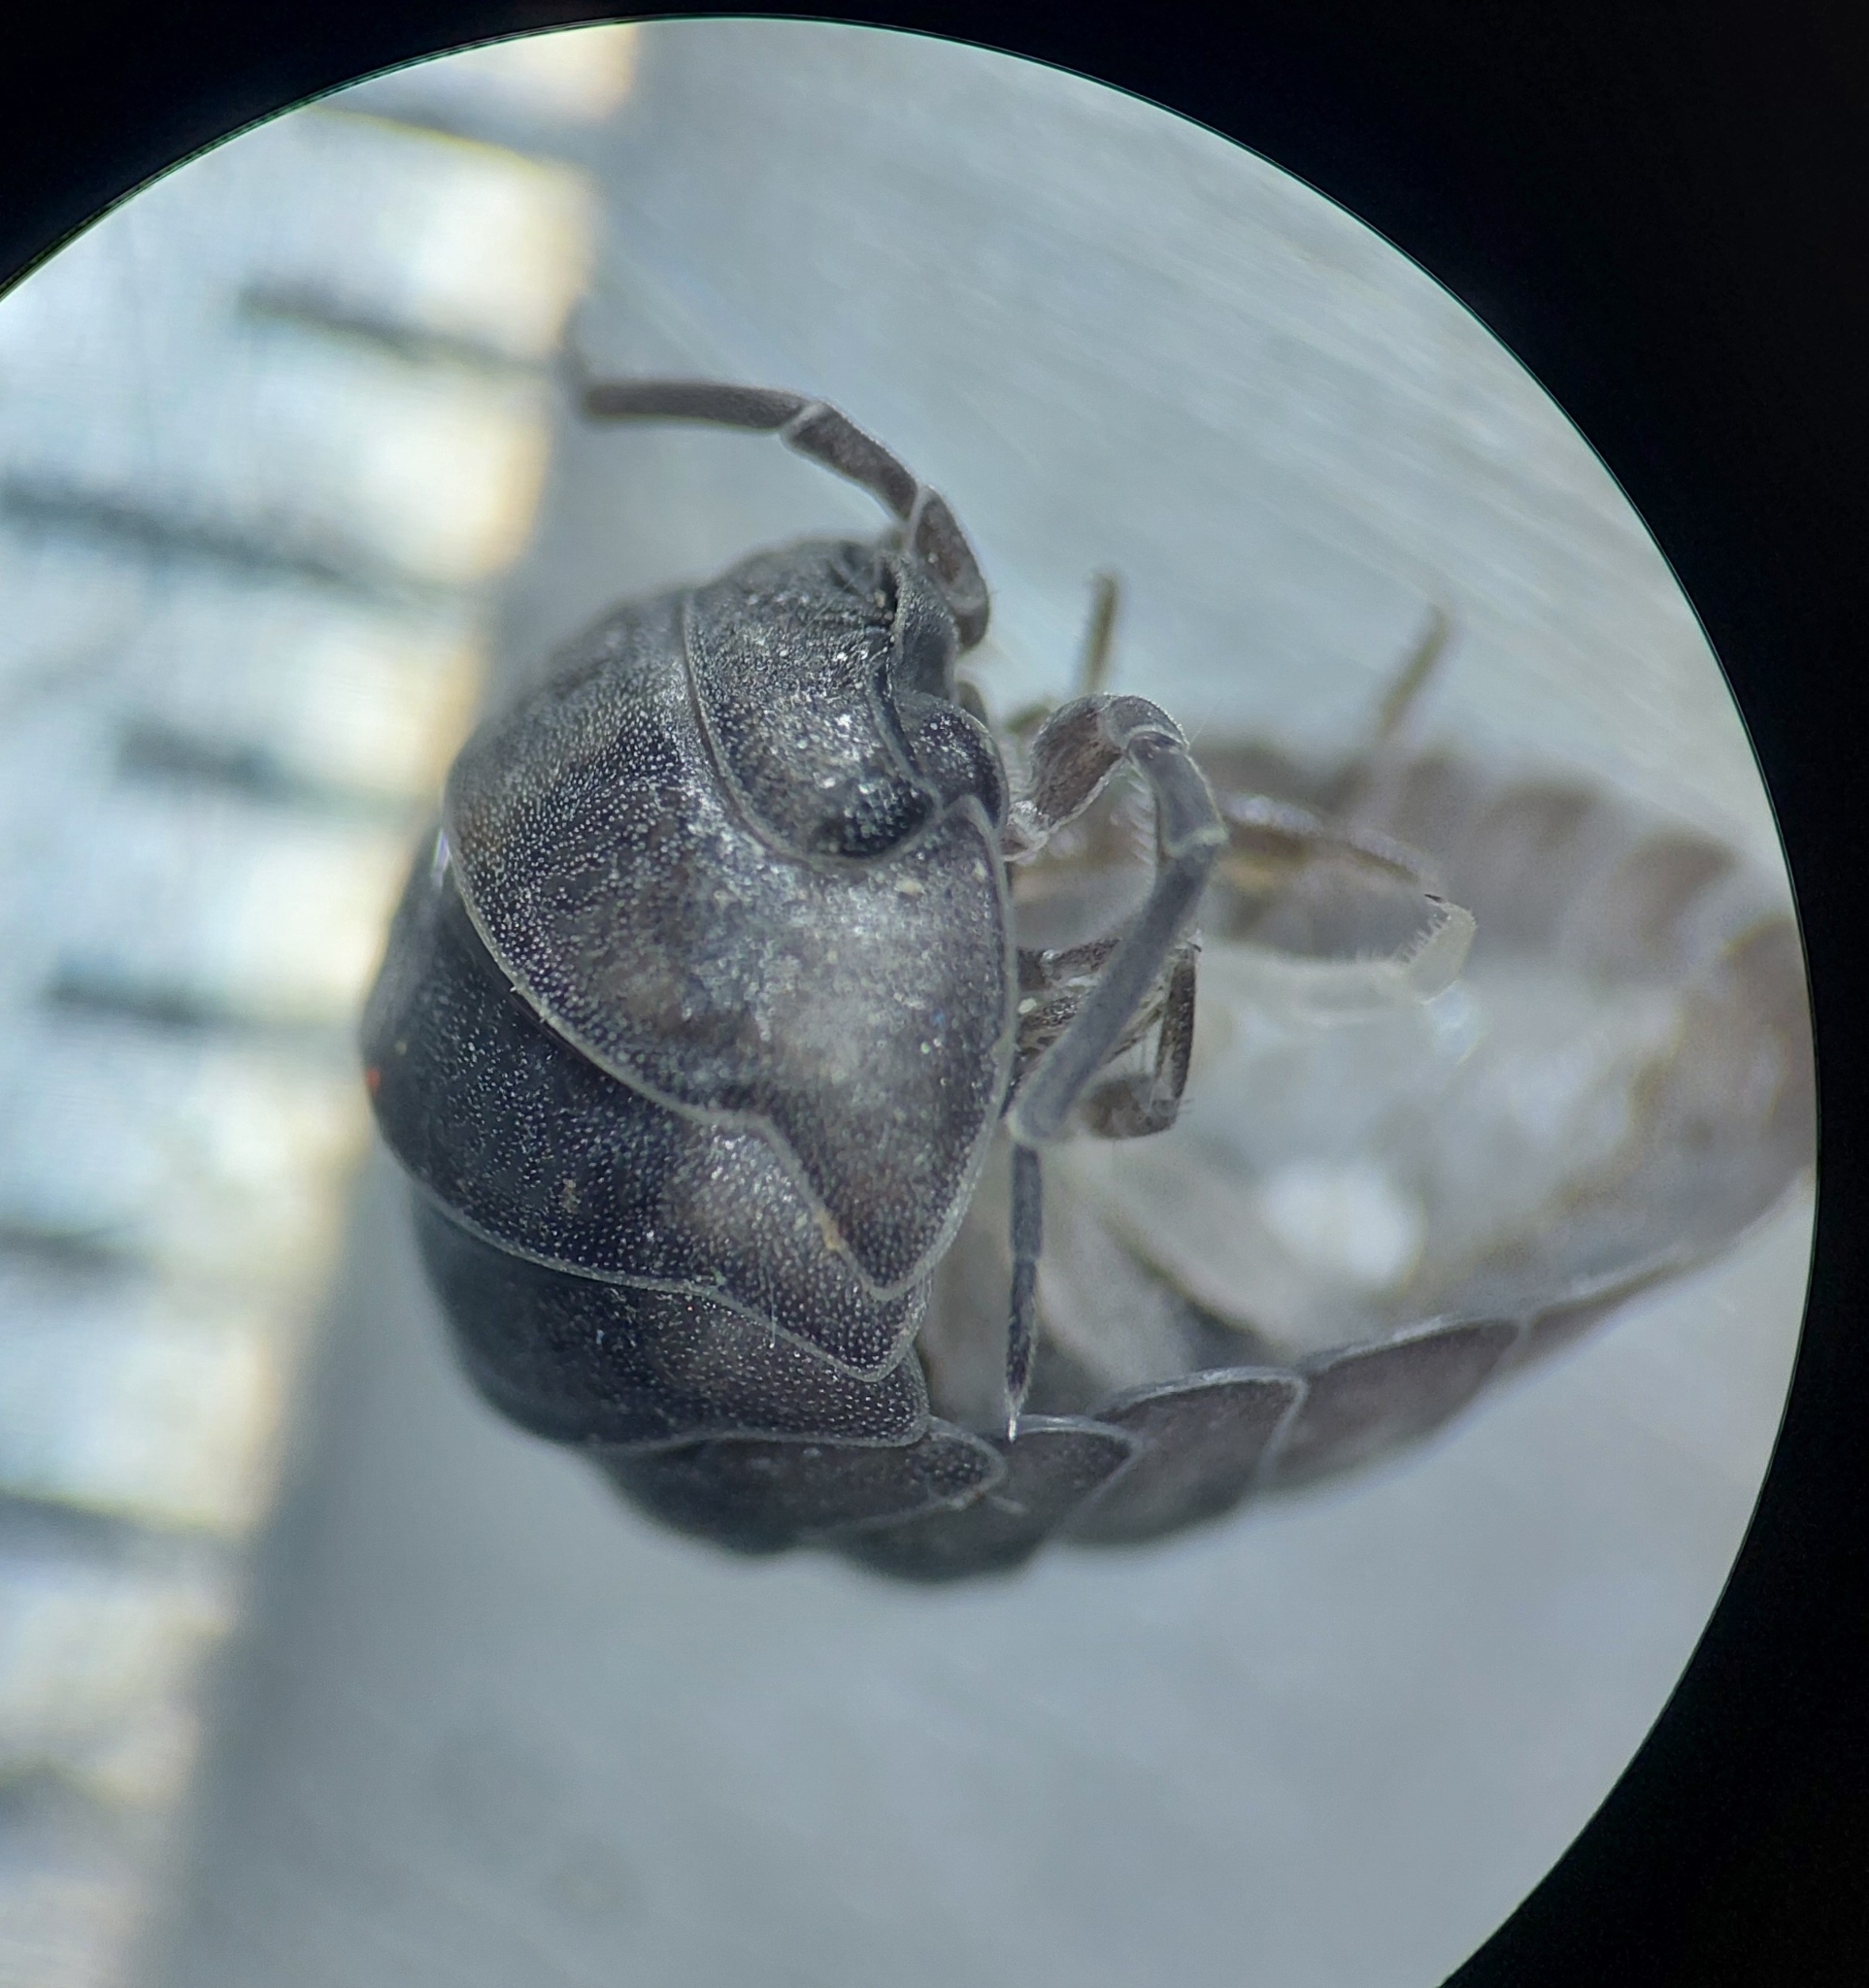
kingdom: Animalia
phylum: Arthropoda
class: Malacostraca
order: Isopoda
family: Armadillidiidae
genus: Armadillidium
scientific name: Armadillidium nasatum
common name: Isopod
